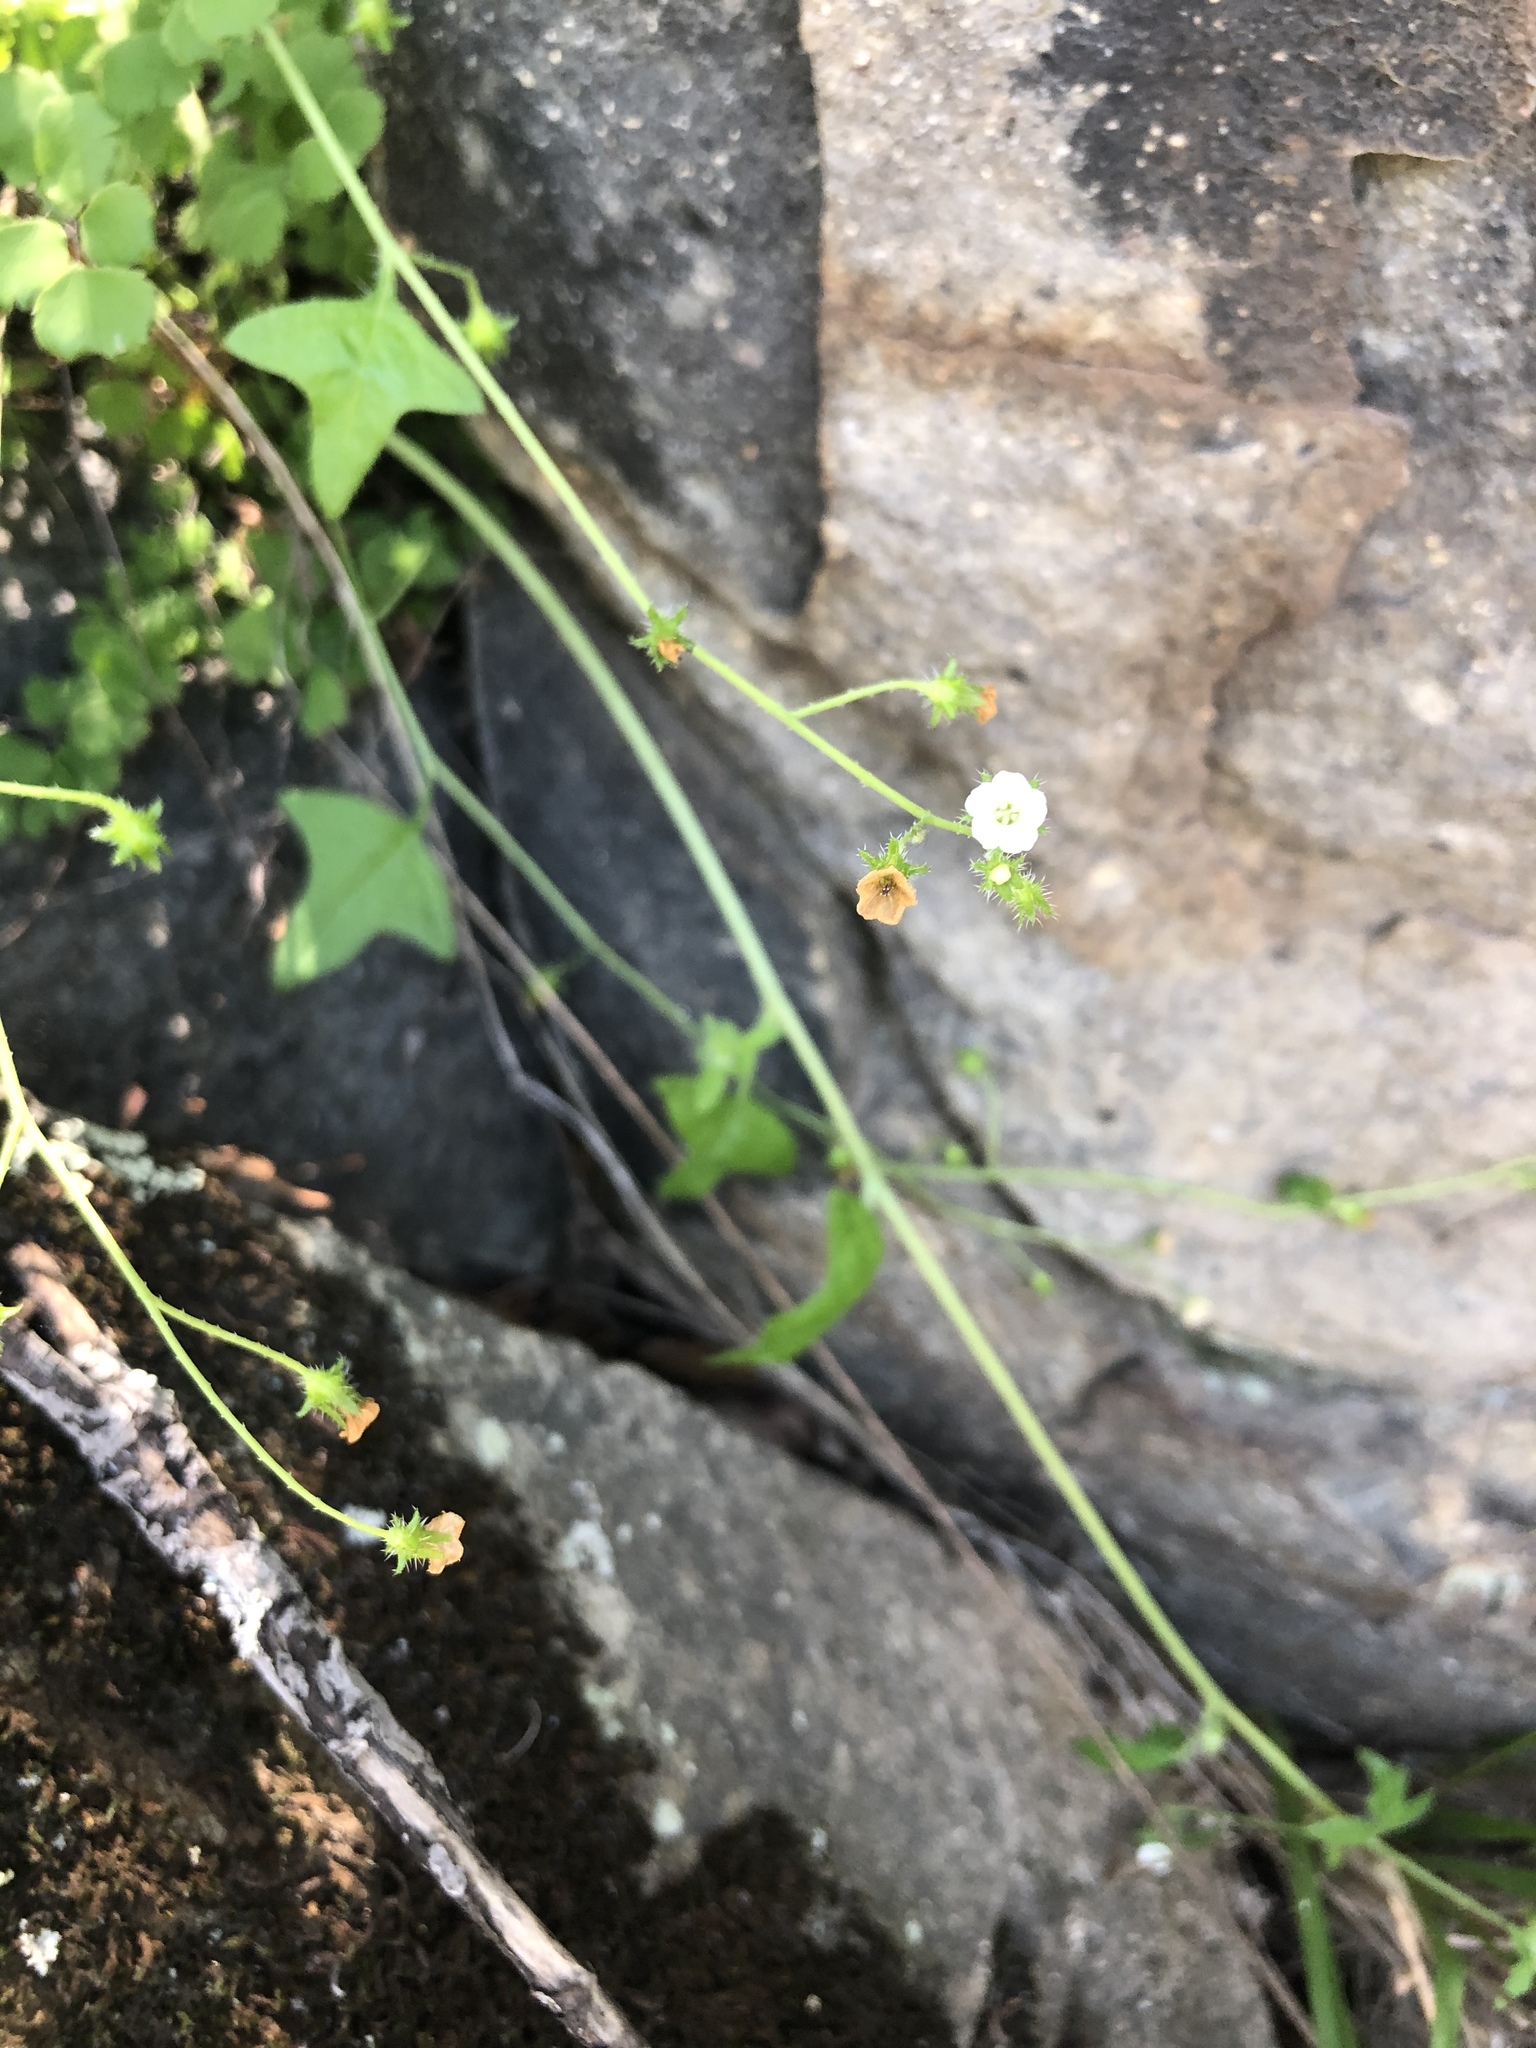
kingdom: Plantae
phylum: Tracheophyta
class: Magnoliopsida
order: Boraginales
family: Hydrophyllaceae
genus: Pholistoma
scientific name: Pholistoma racemosum
